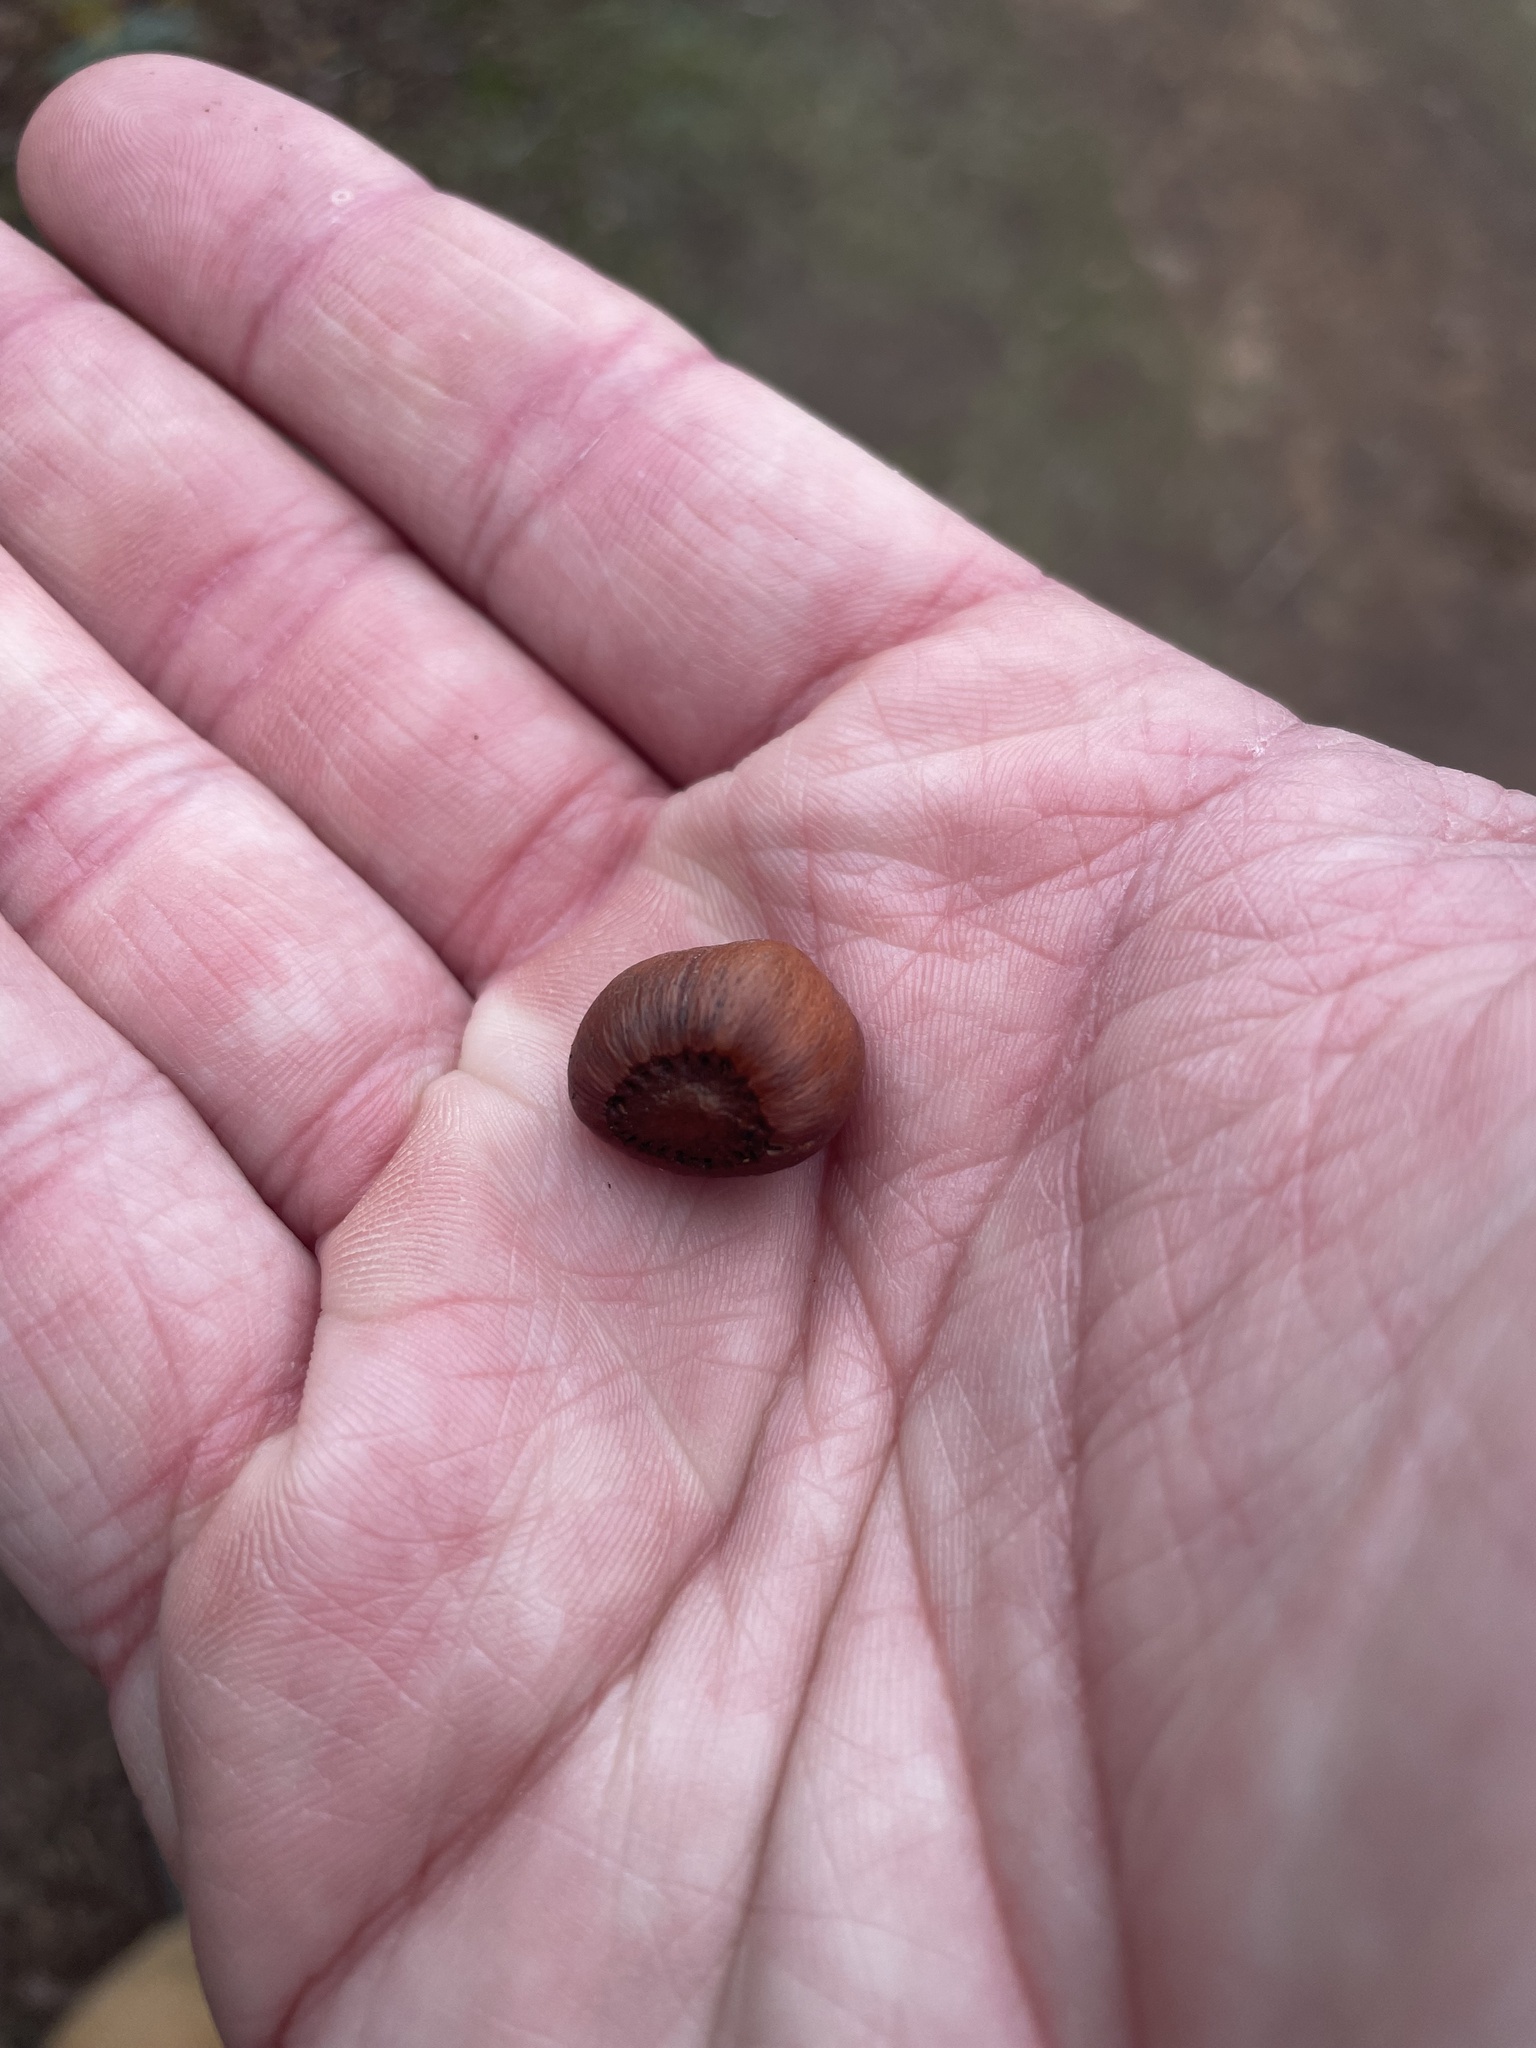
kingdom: Plantae
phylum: Tracheophyta
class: Magnoliopsida
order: Fagales
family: Betulaceae
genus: Corylus
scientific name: Corylus cornuta
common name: Beaked hazel
